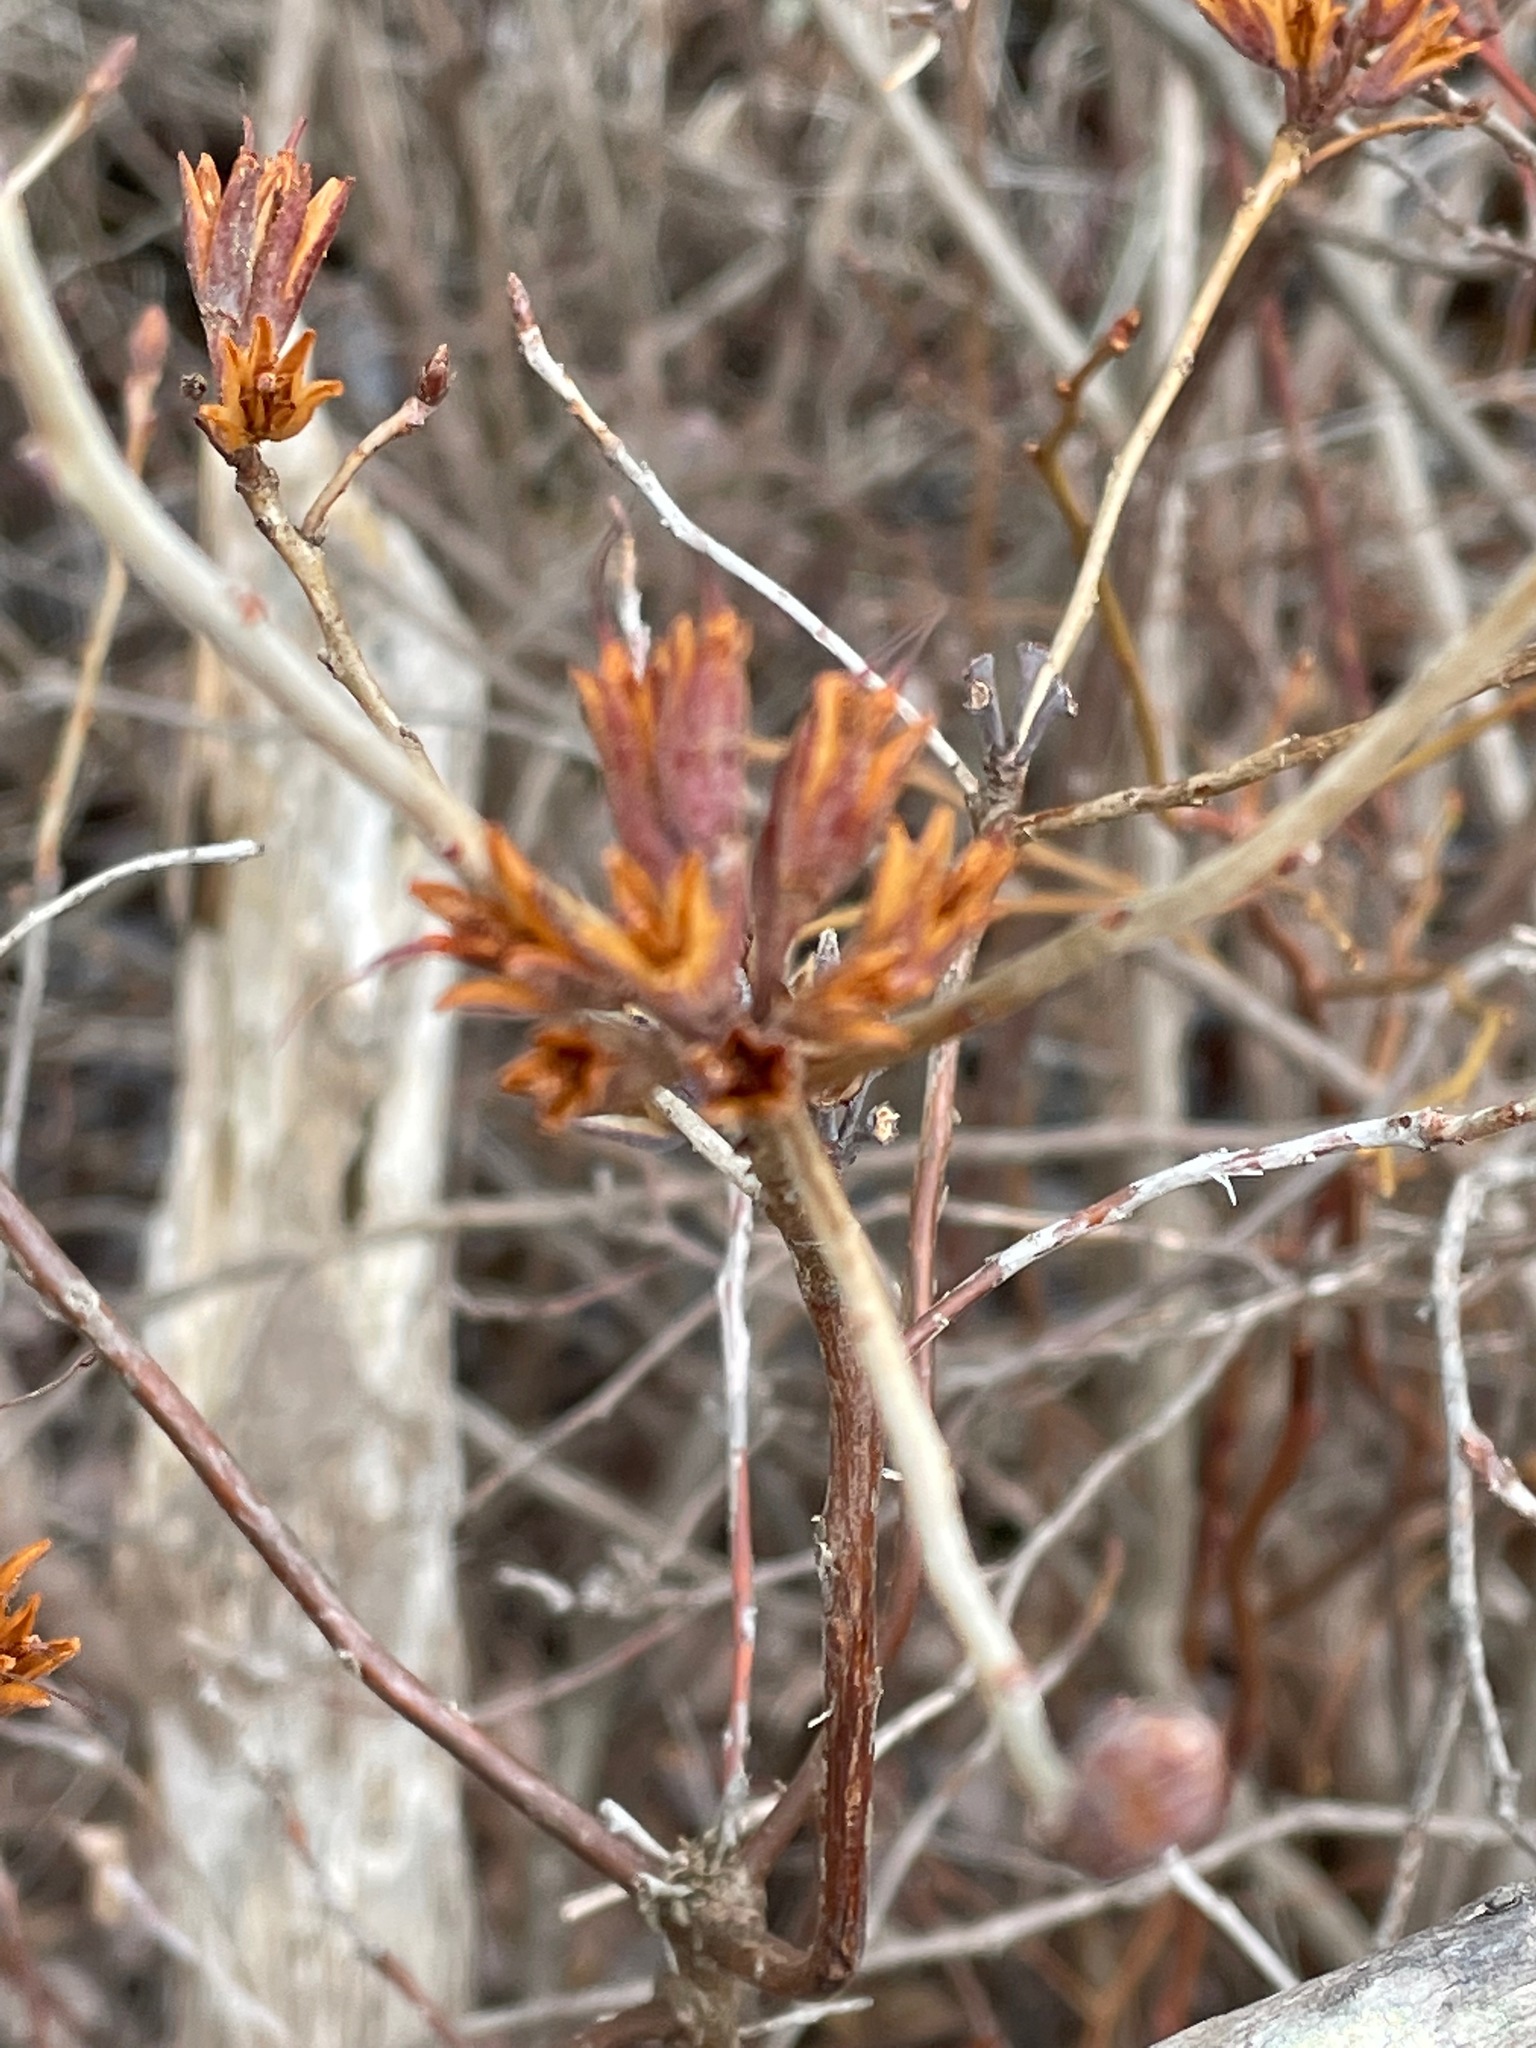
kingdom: Plantae
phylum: Tracheophyta
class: Magnoliopsida
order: Ericales
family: Ericaceae
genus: Rhododendron
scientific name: Rhododendron canadense
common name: Rhodora
